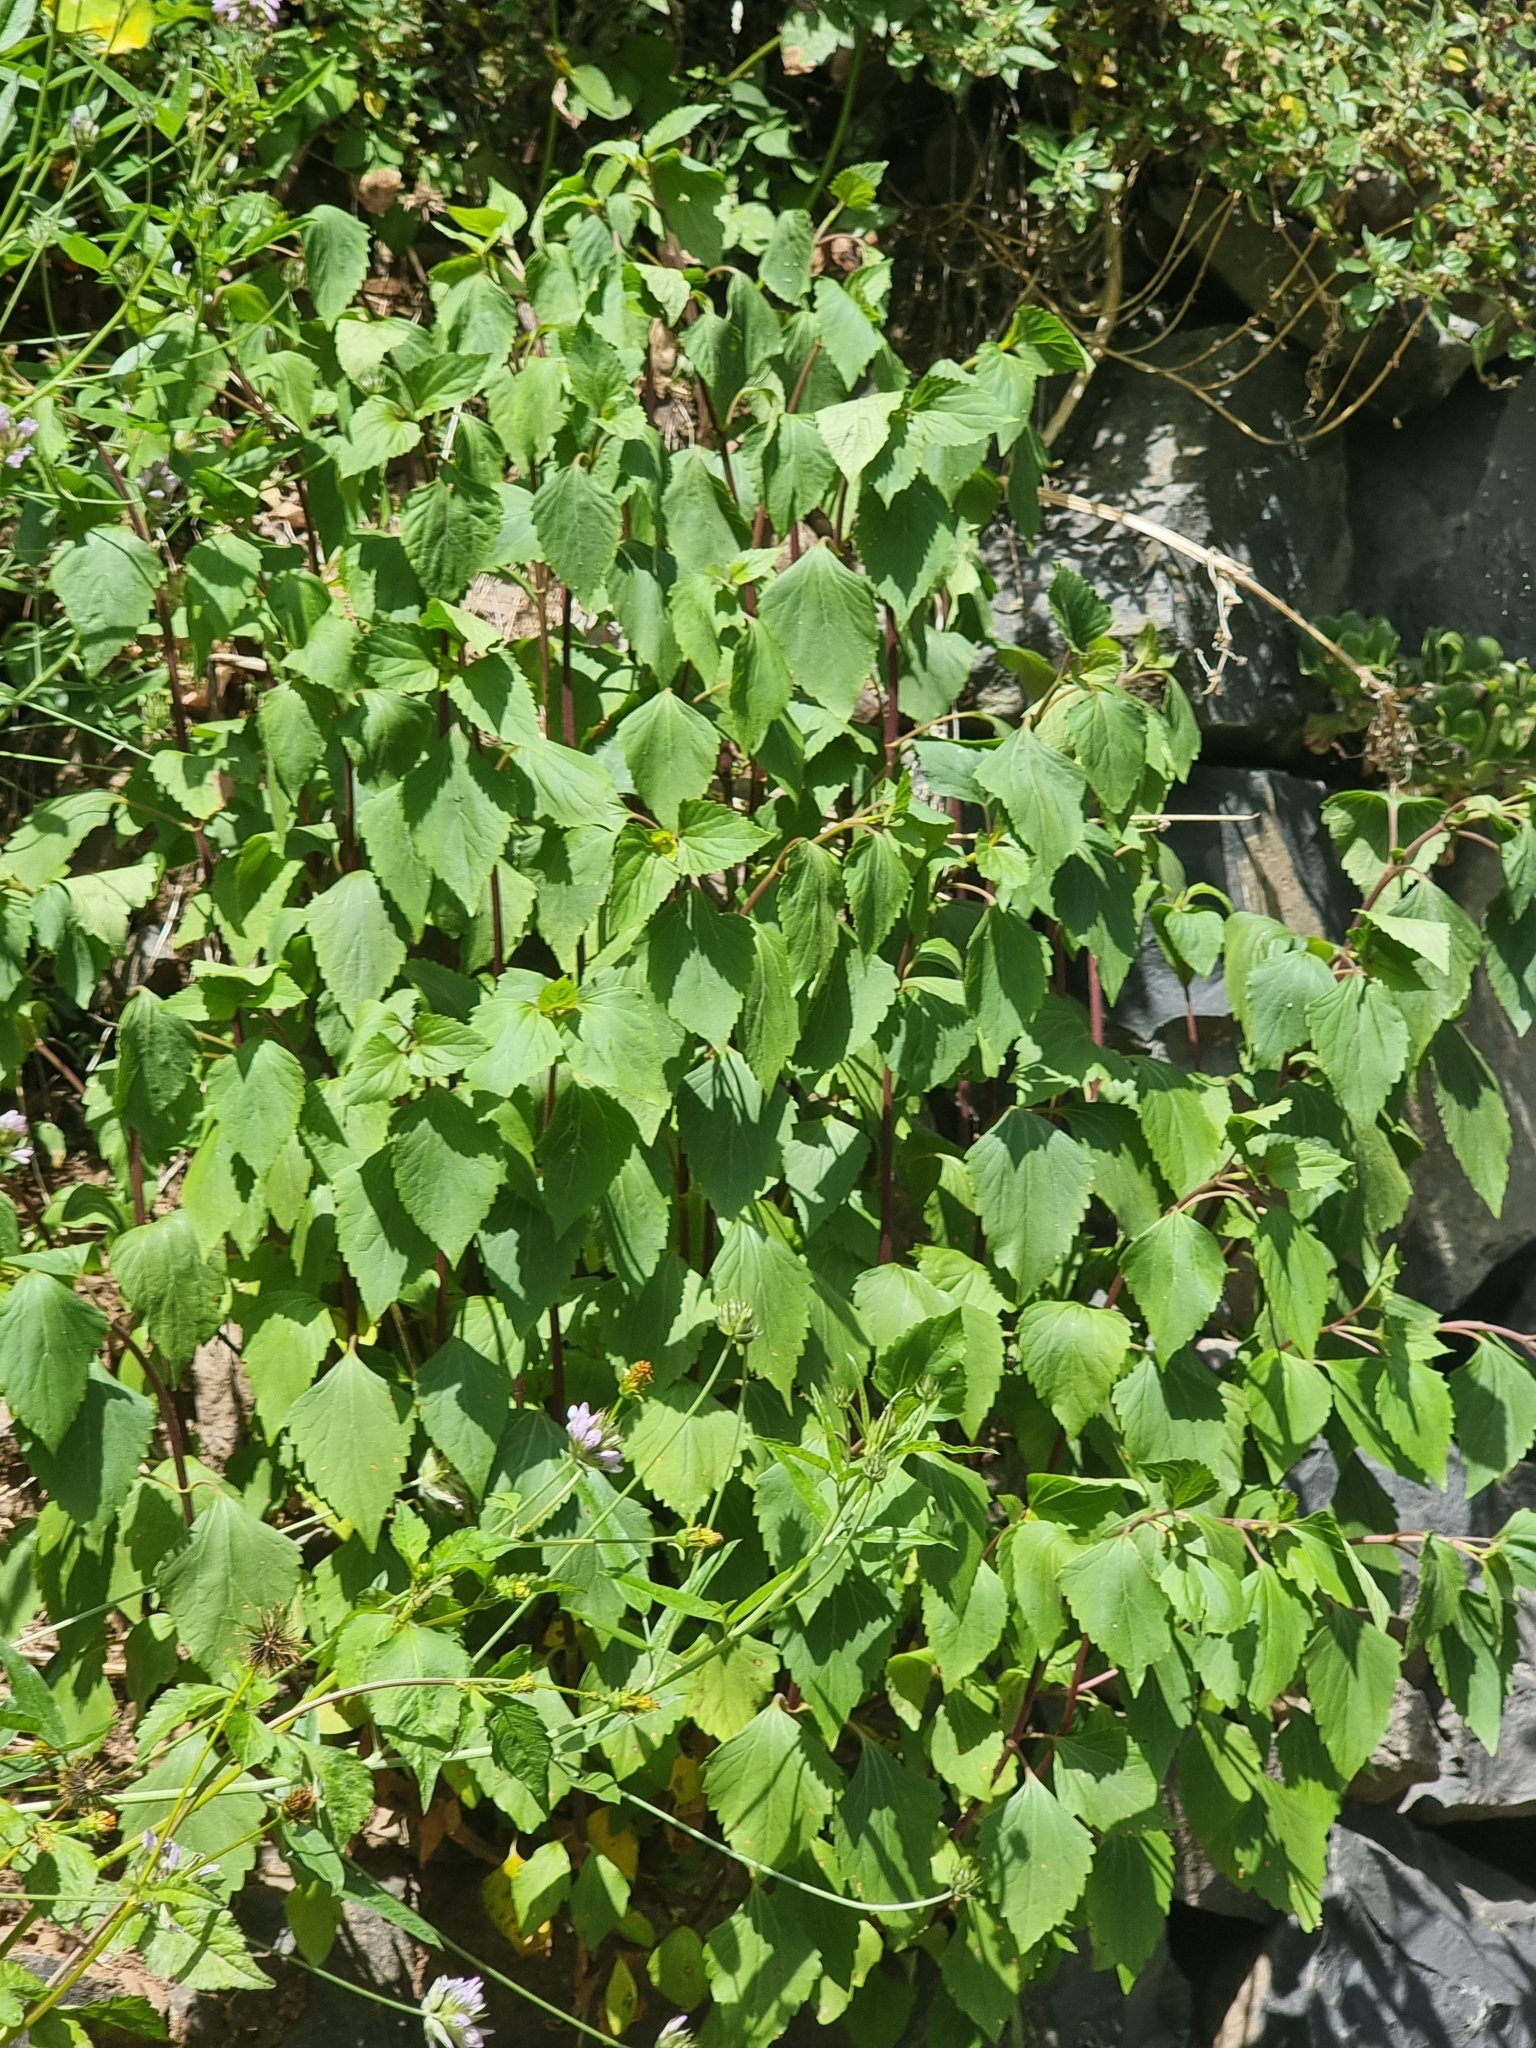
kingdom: Plantae
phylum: Tracheophyta
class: Magnoliopsida
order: Asterales
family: Asteraceae
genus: Ageratina
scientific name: Ageratina adenophora
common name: Sticky snakeroot
